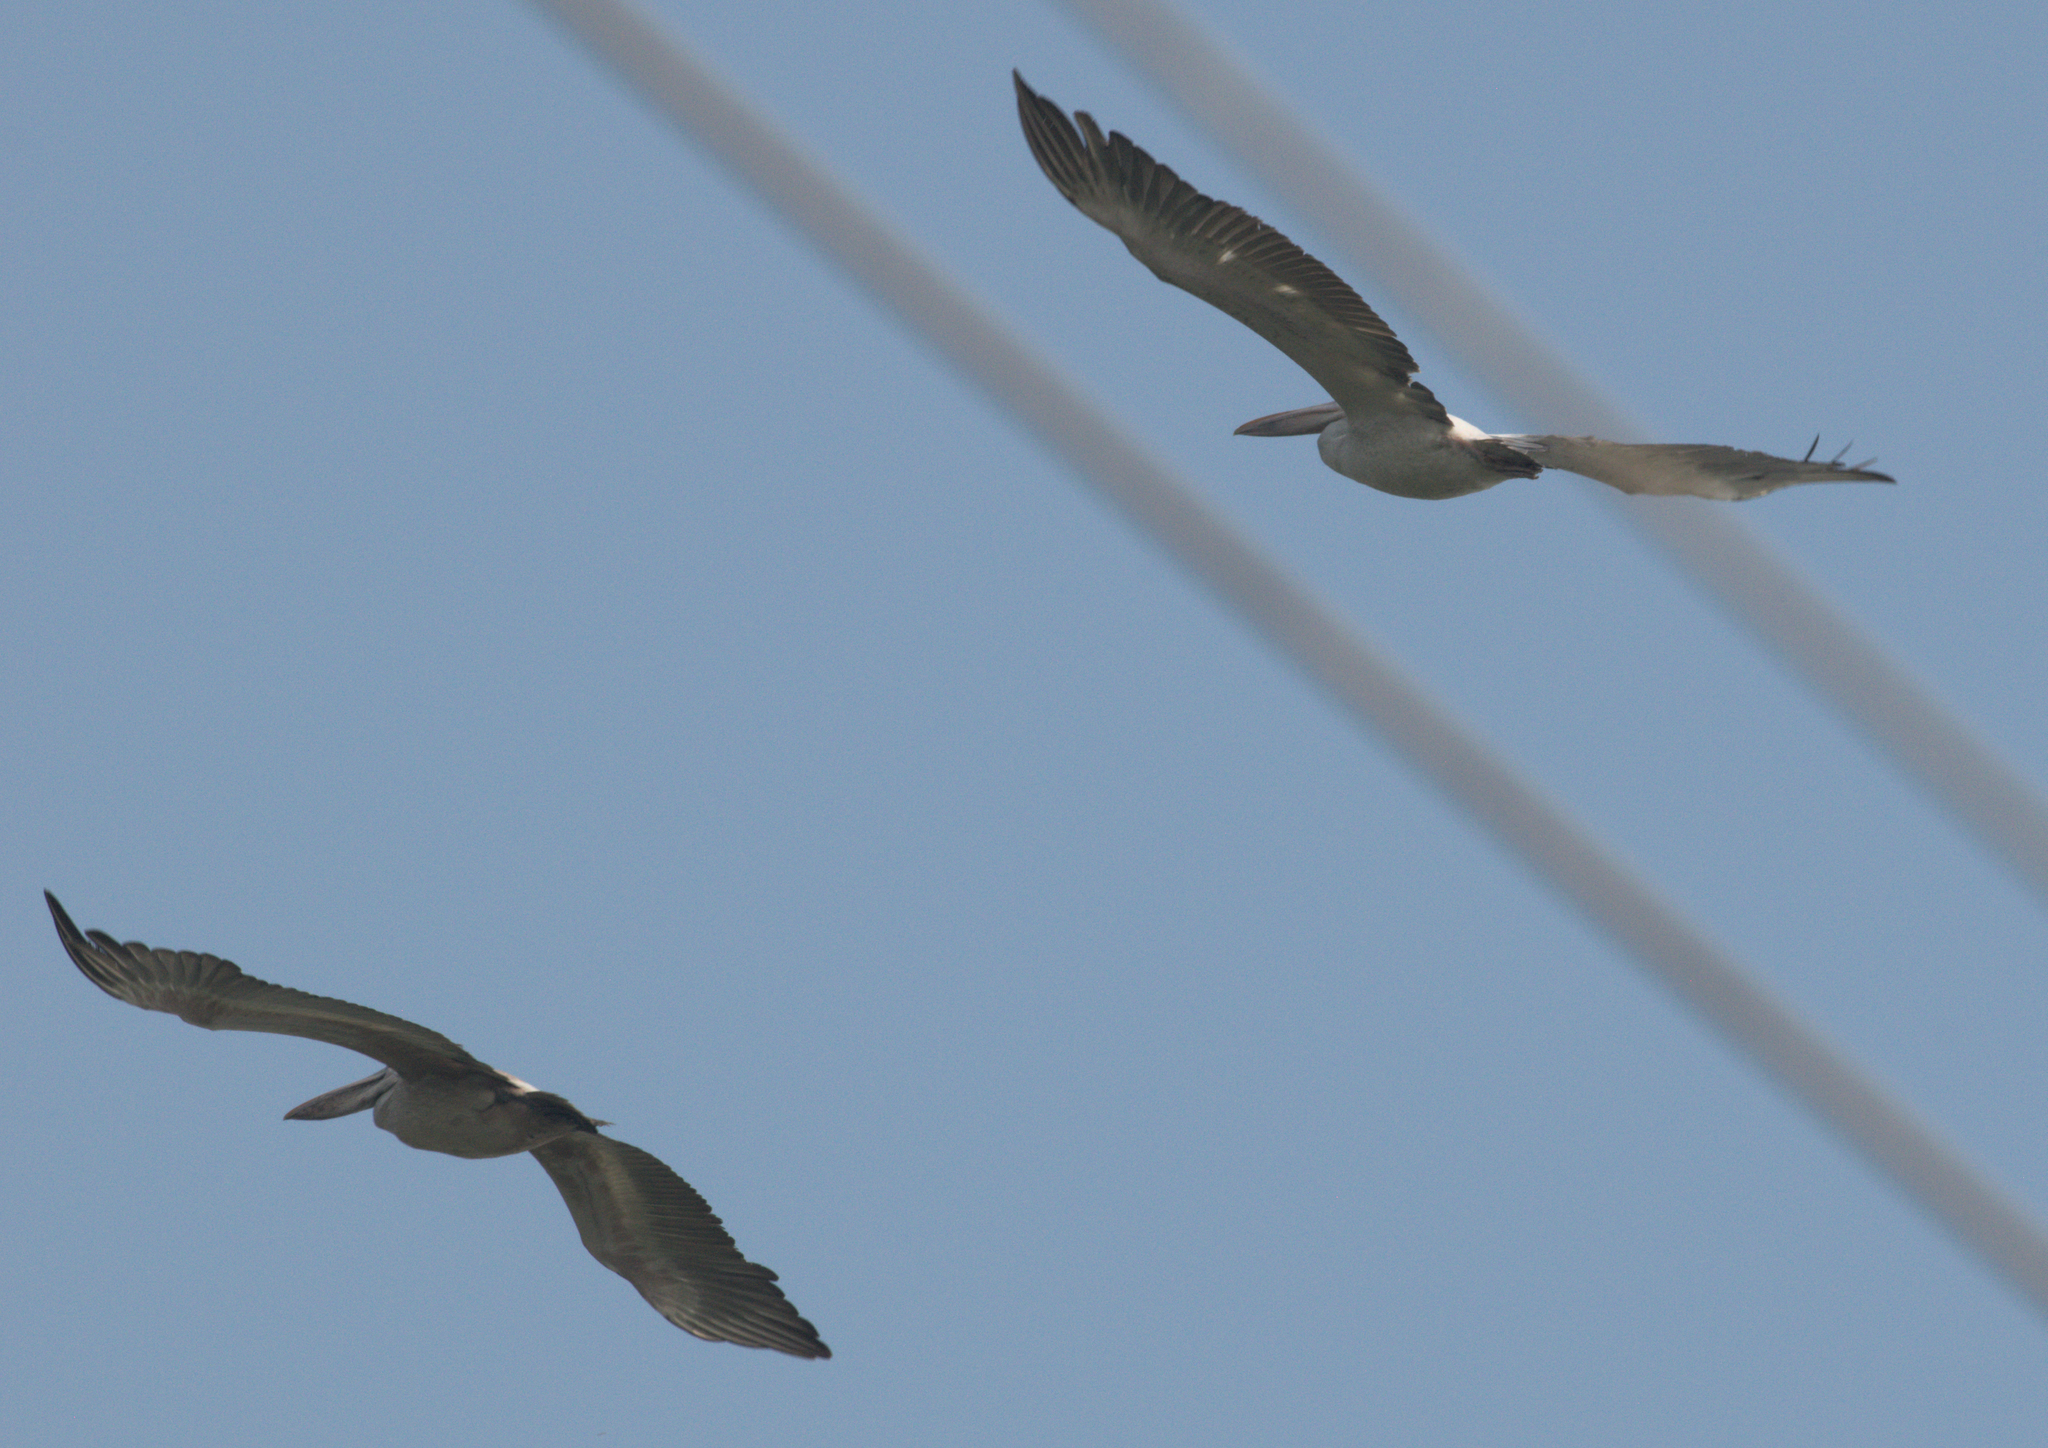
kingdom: Animalia
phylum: Chordata
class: Aves
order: Pelecaniformes
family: Pelecanidae
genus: Pelecanus
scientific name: Pelecanus philippensis
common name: Spot-billed pelican
